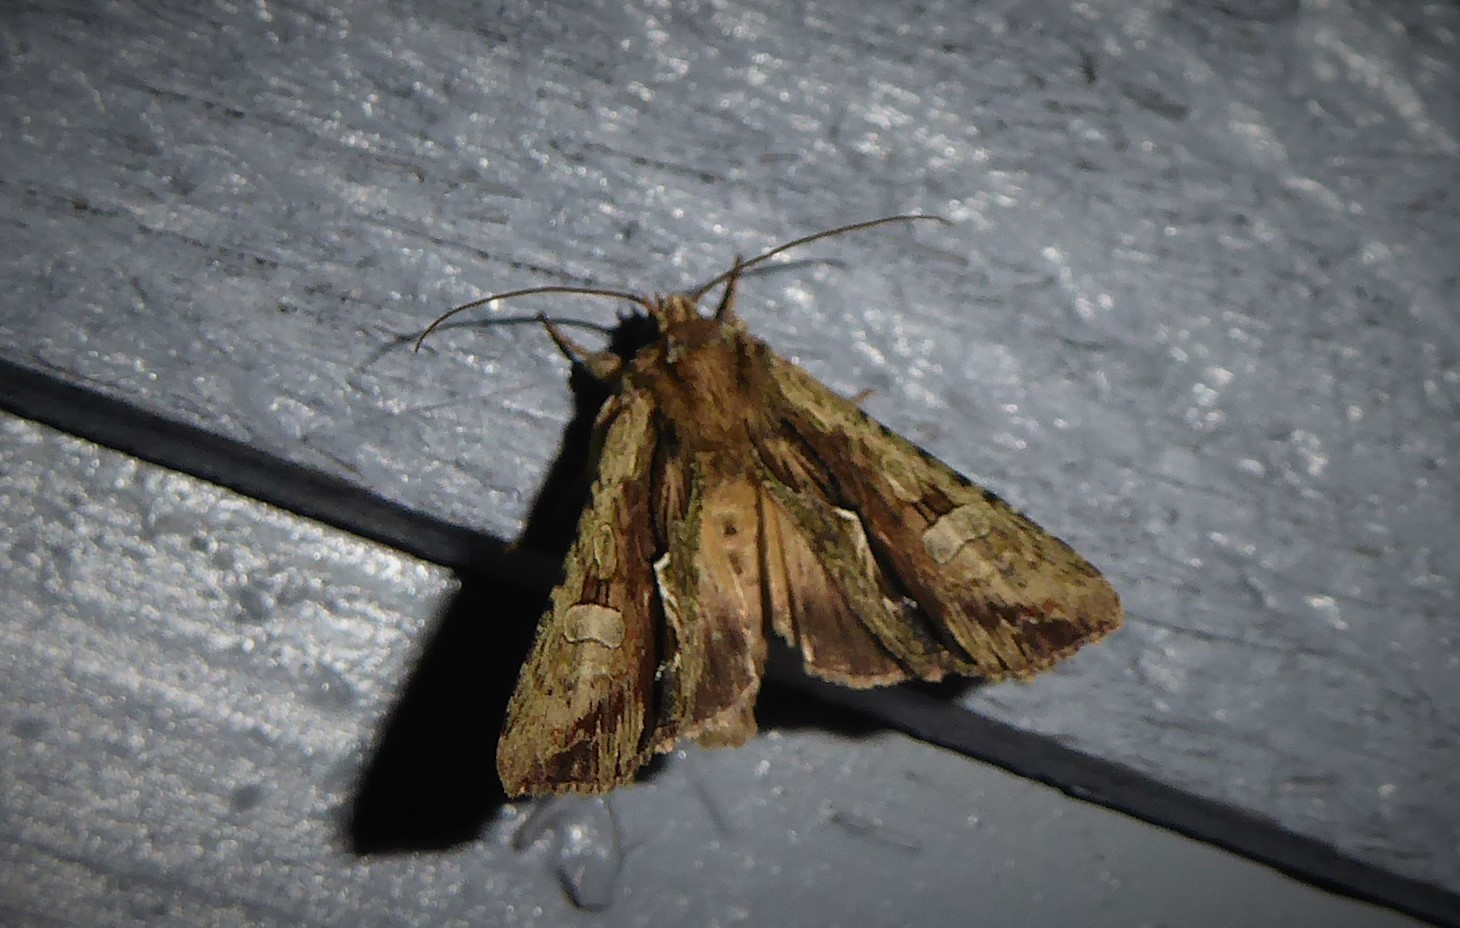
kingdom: Animalia
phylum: Arthropoda
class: Insecta
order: Lepidoptera
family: Noctuidae
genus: Meterana
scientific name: Meterana decorata
